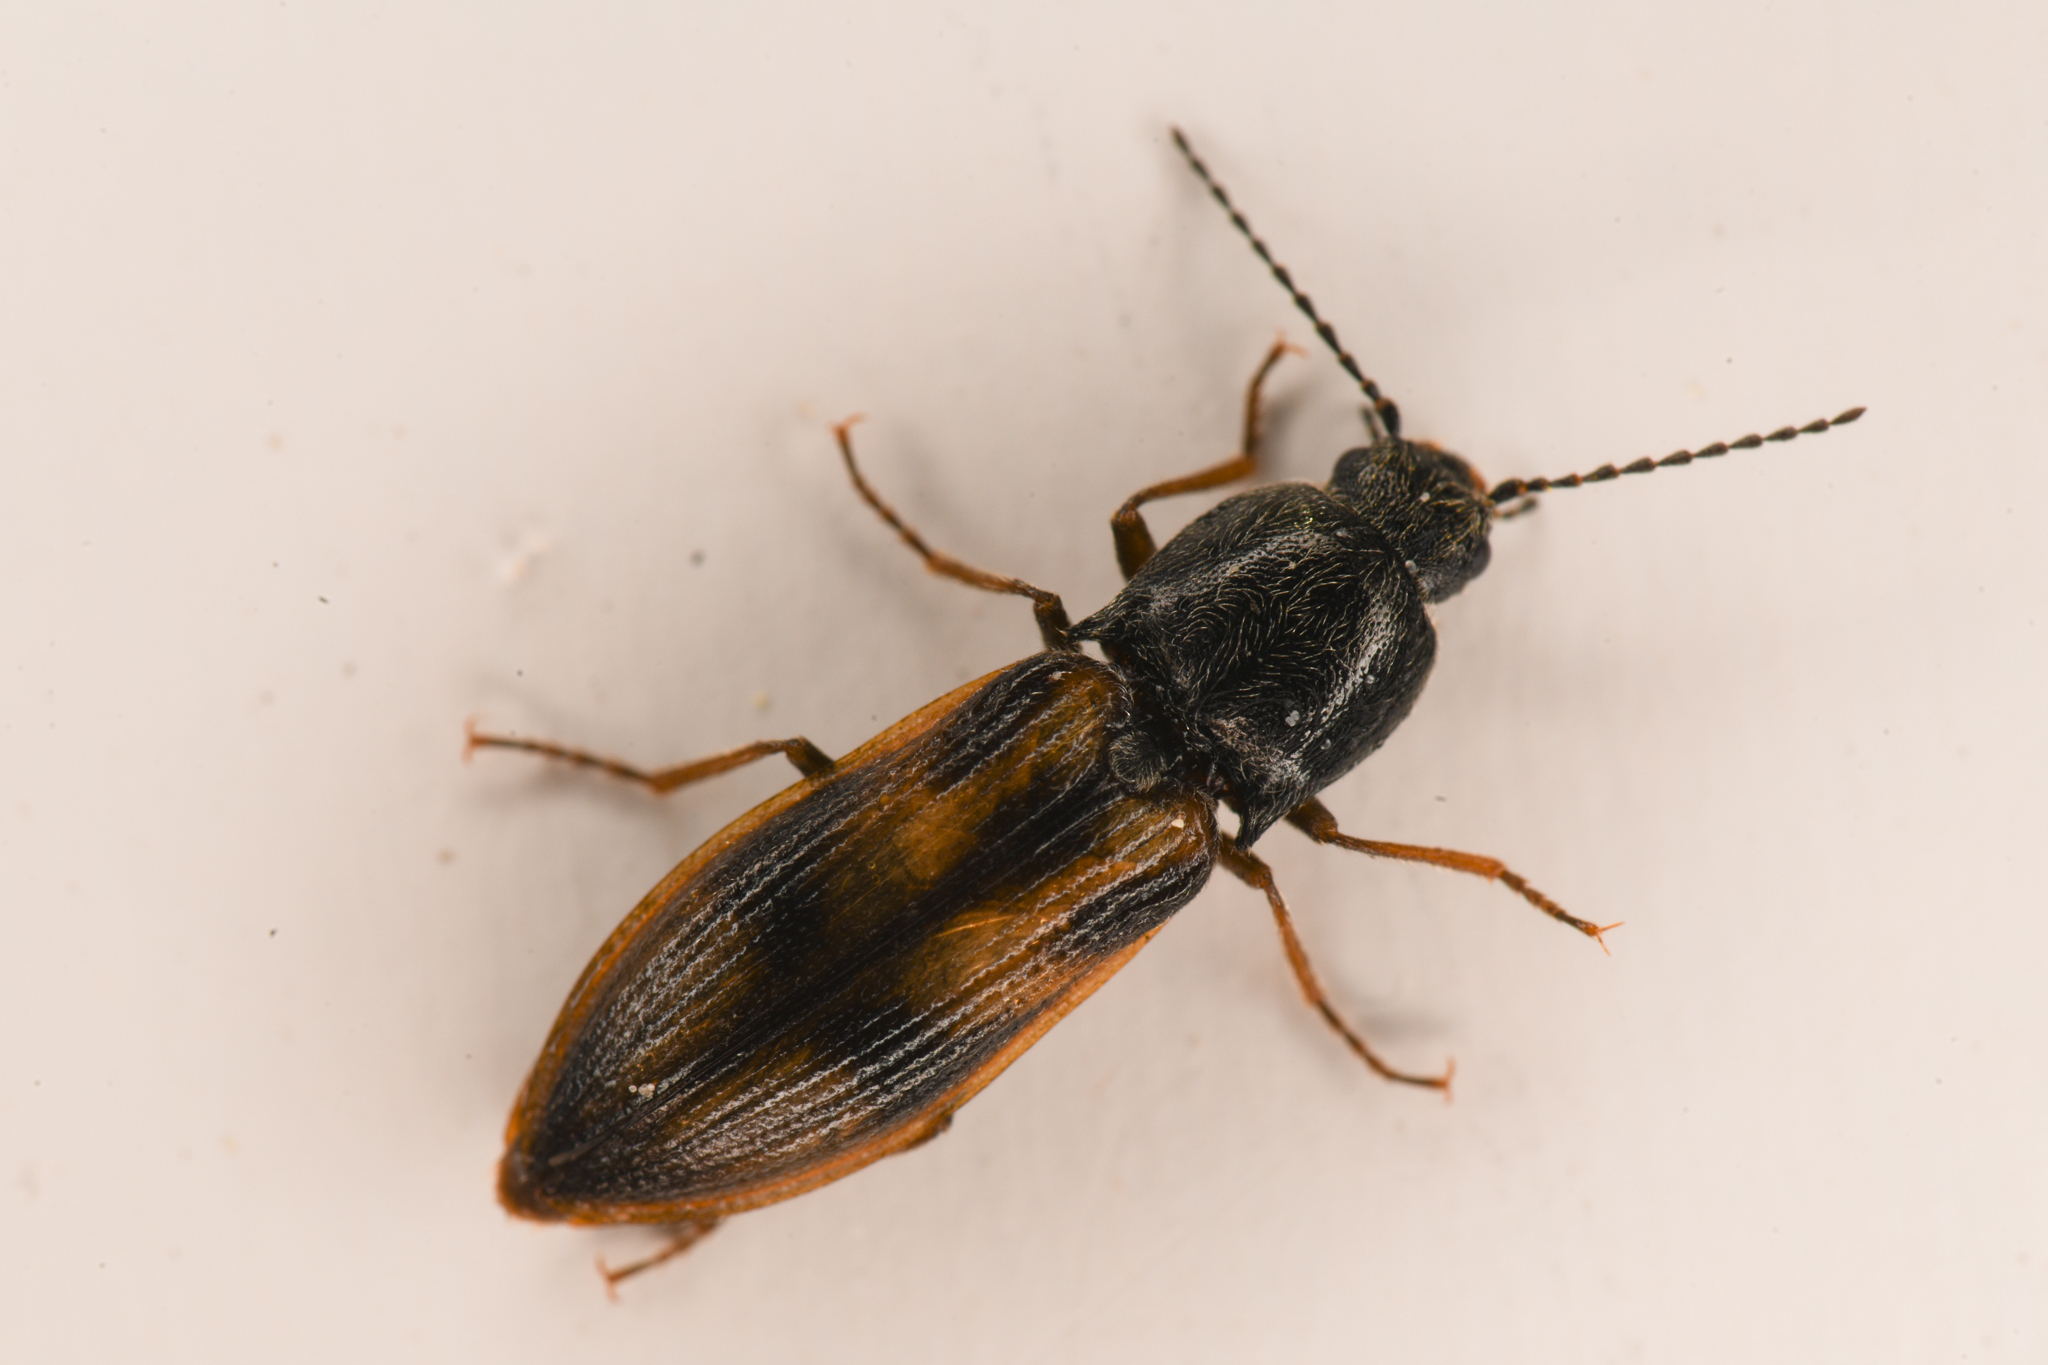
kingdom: Animalia
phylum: Arthropoda
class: Insecta
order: Coleoptera
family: Elateridae
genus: Liotrichus
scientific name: Liotrichus umbripennis
